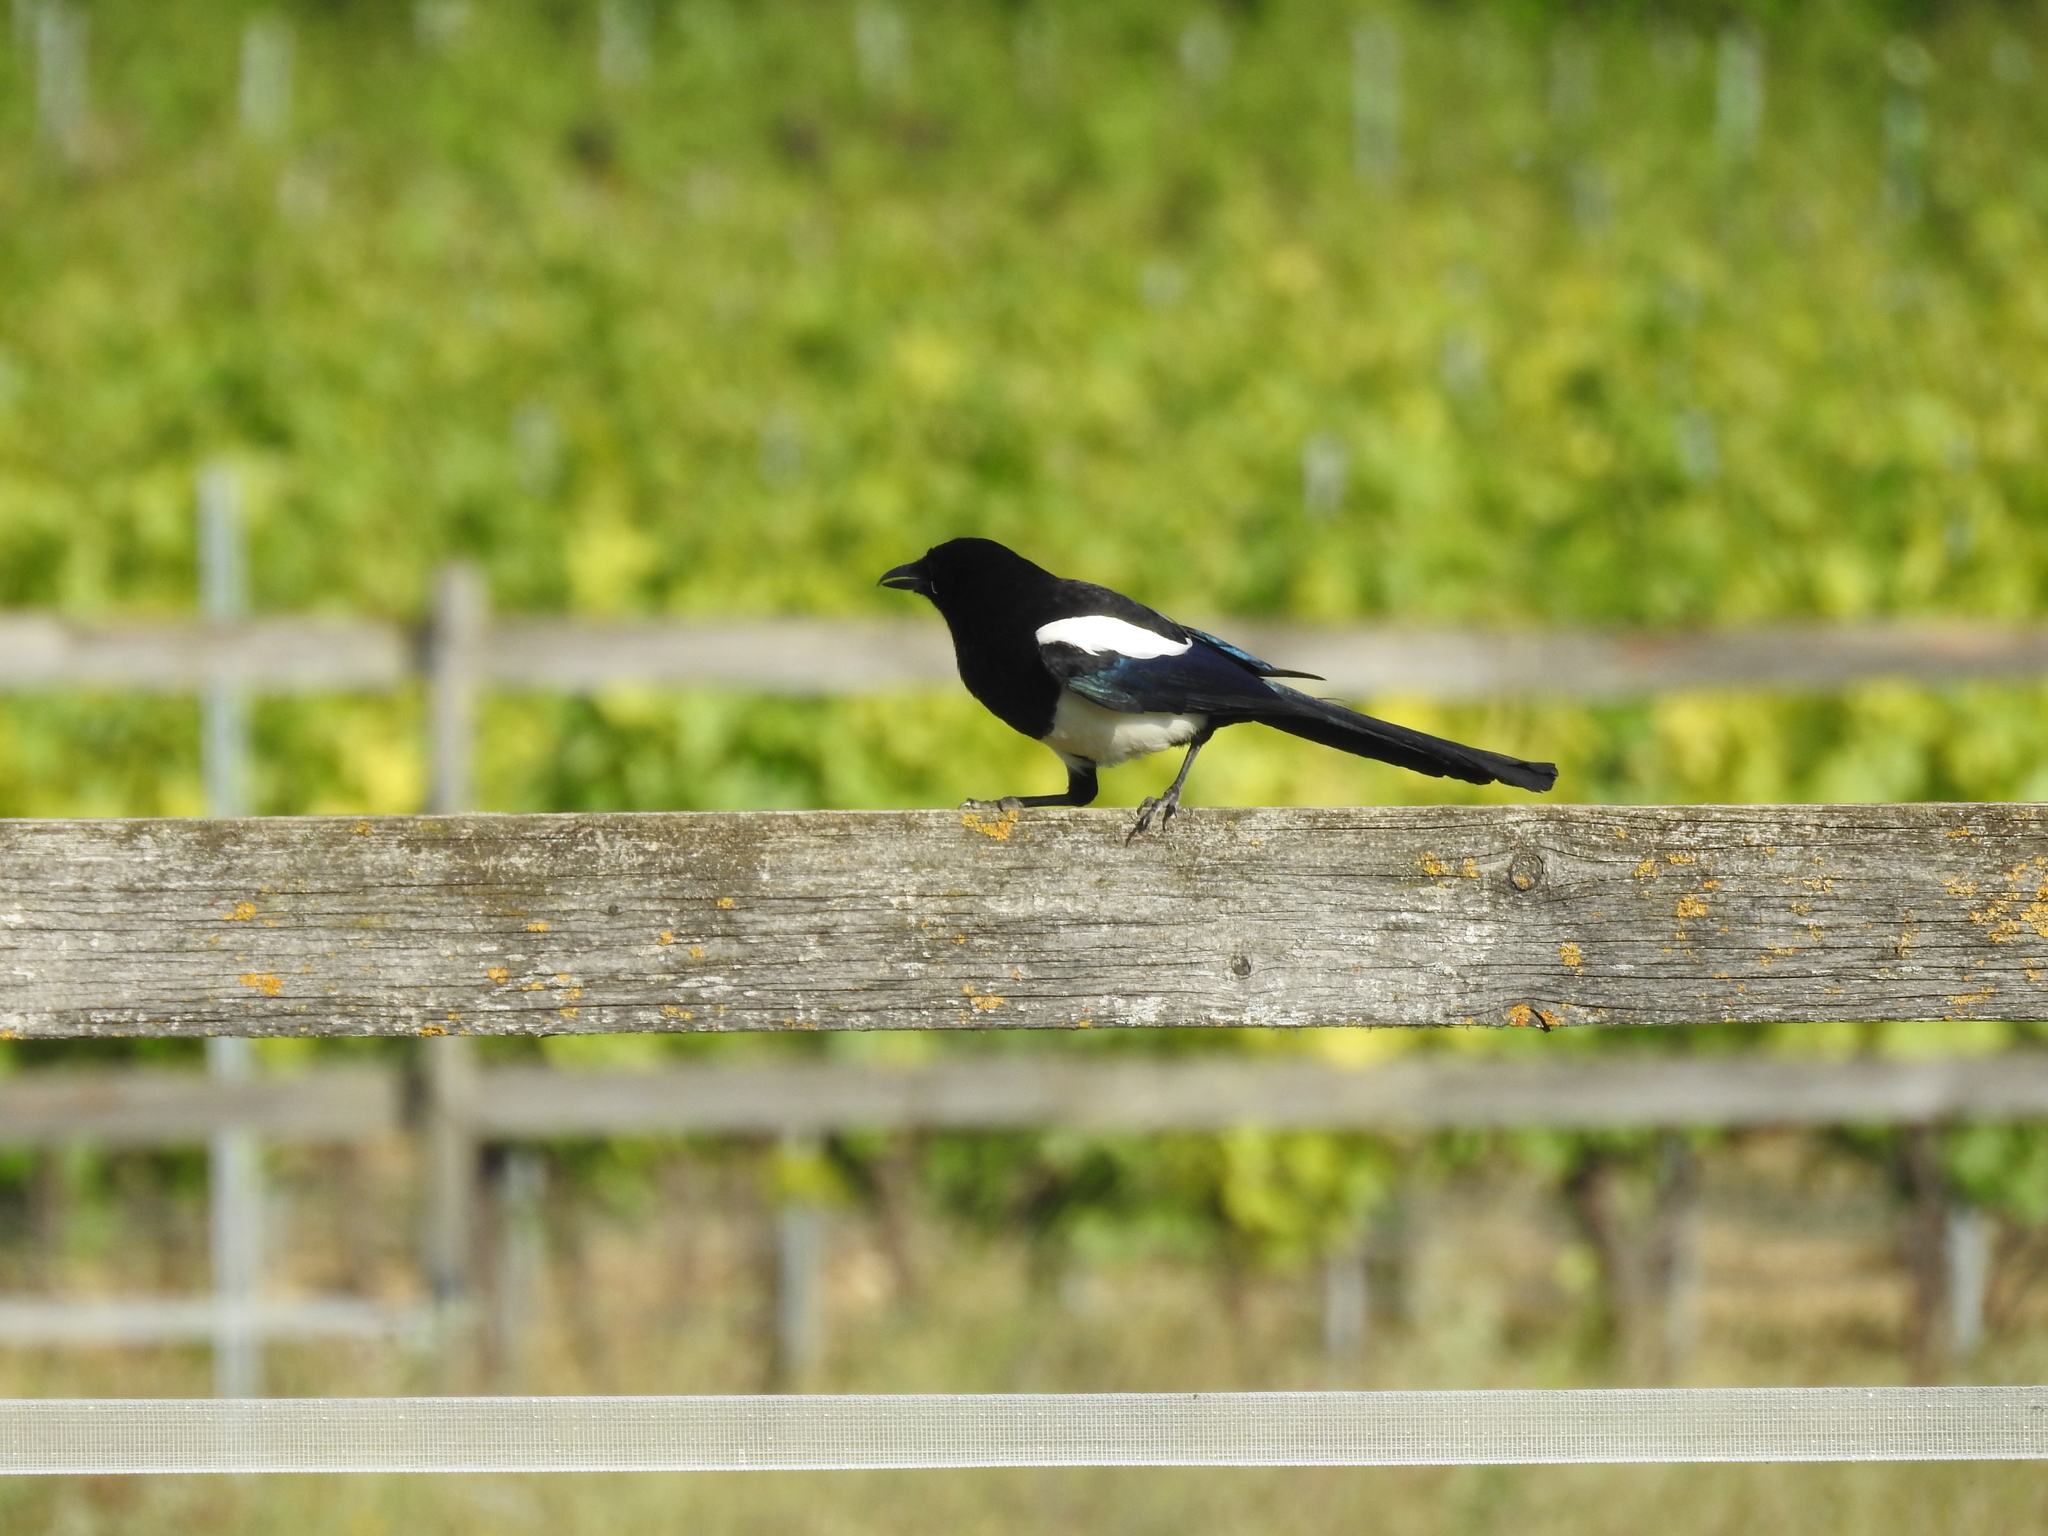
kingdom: Animalia
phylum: Chordata
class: Aves
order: Passeriformes
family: Corvidae
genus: Pica
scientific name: Pica pica
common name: Eurasian magpie
